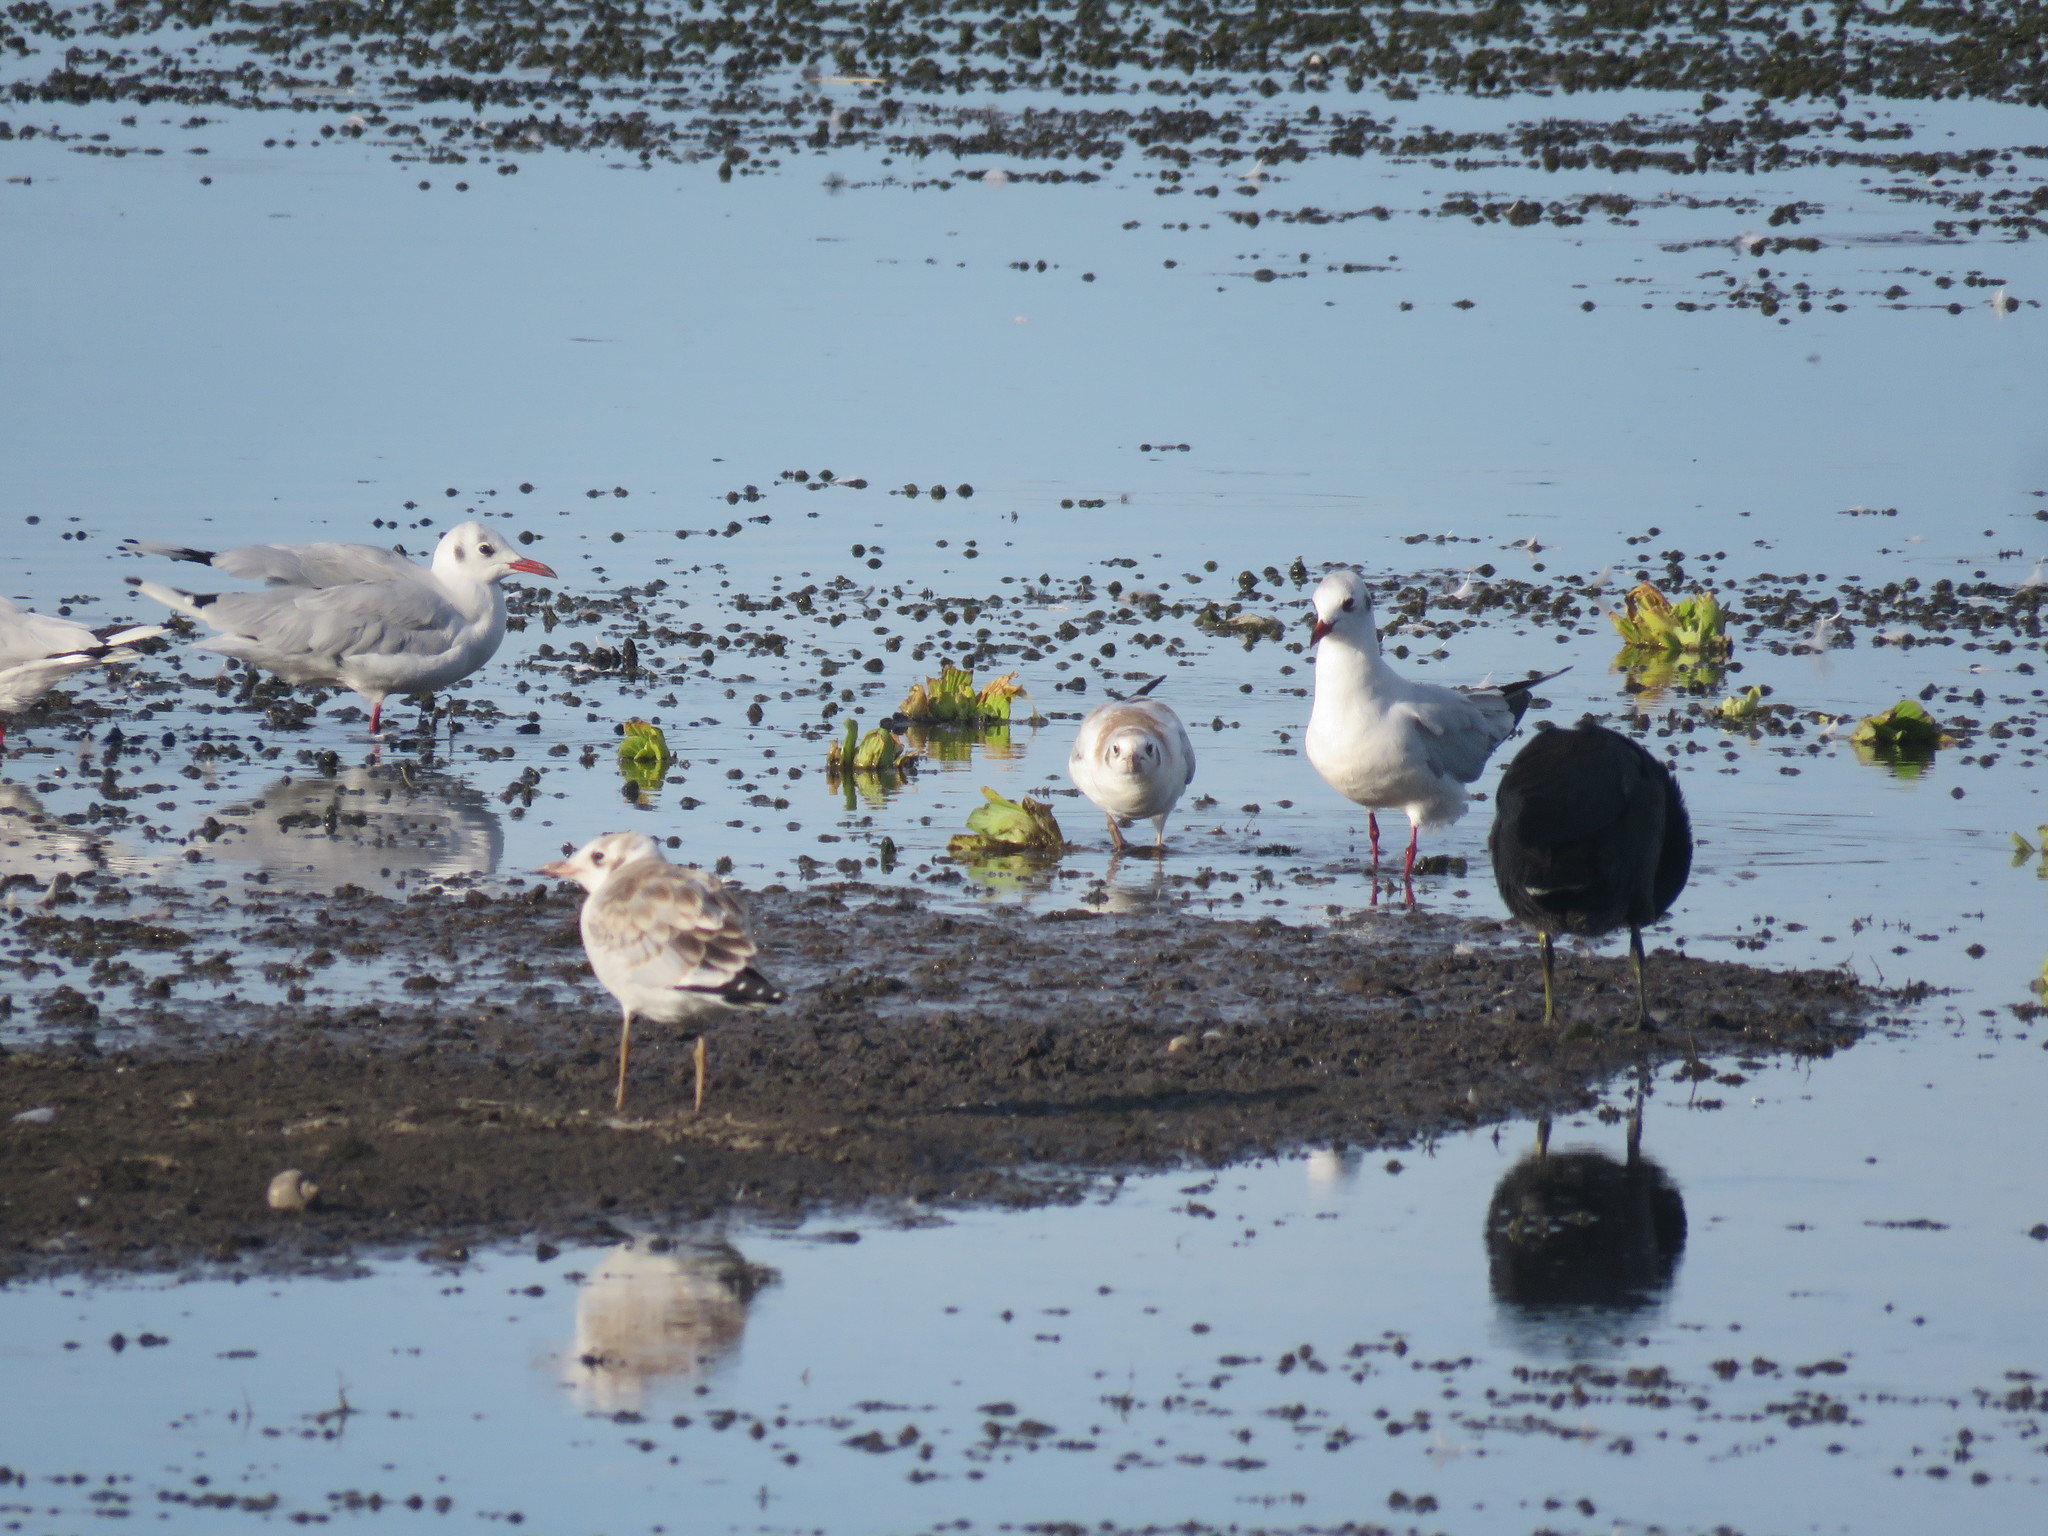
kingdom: Animalia
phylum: Chordata
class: Aves
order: Charadriiformes
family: Laridae
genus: Chroicocephalus
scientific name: Chroicocephalus maculipennis
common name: Brown-hooded gull
